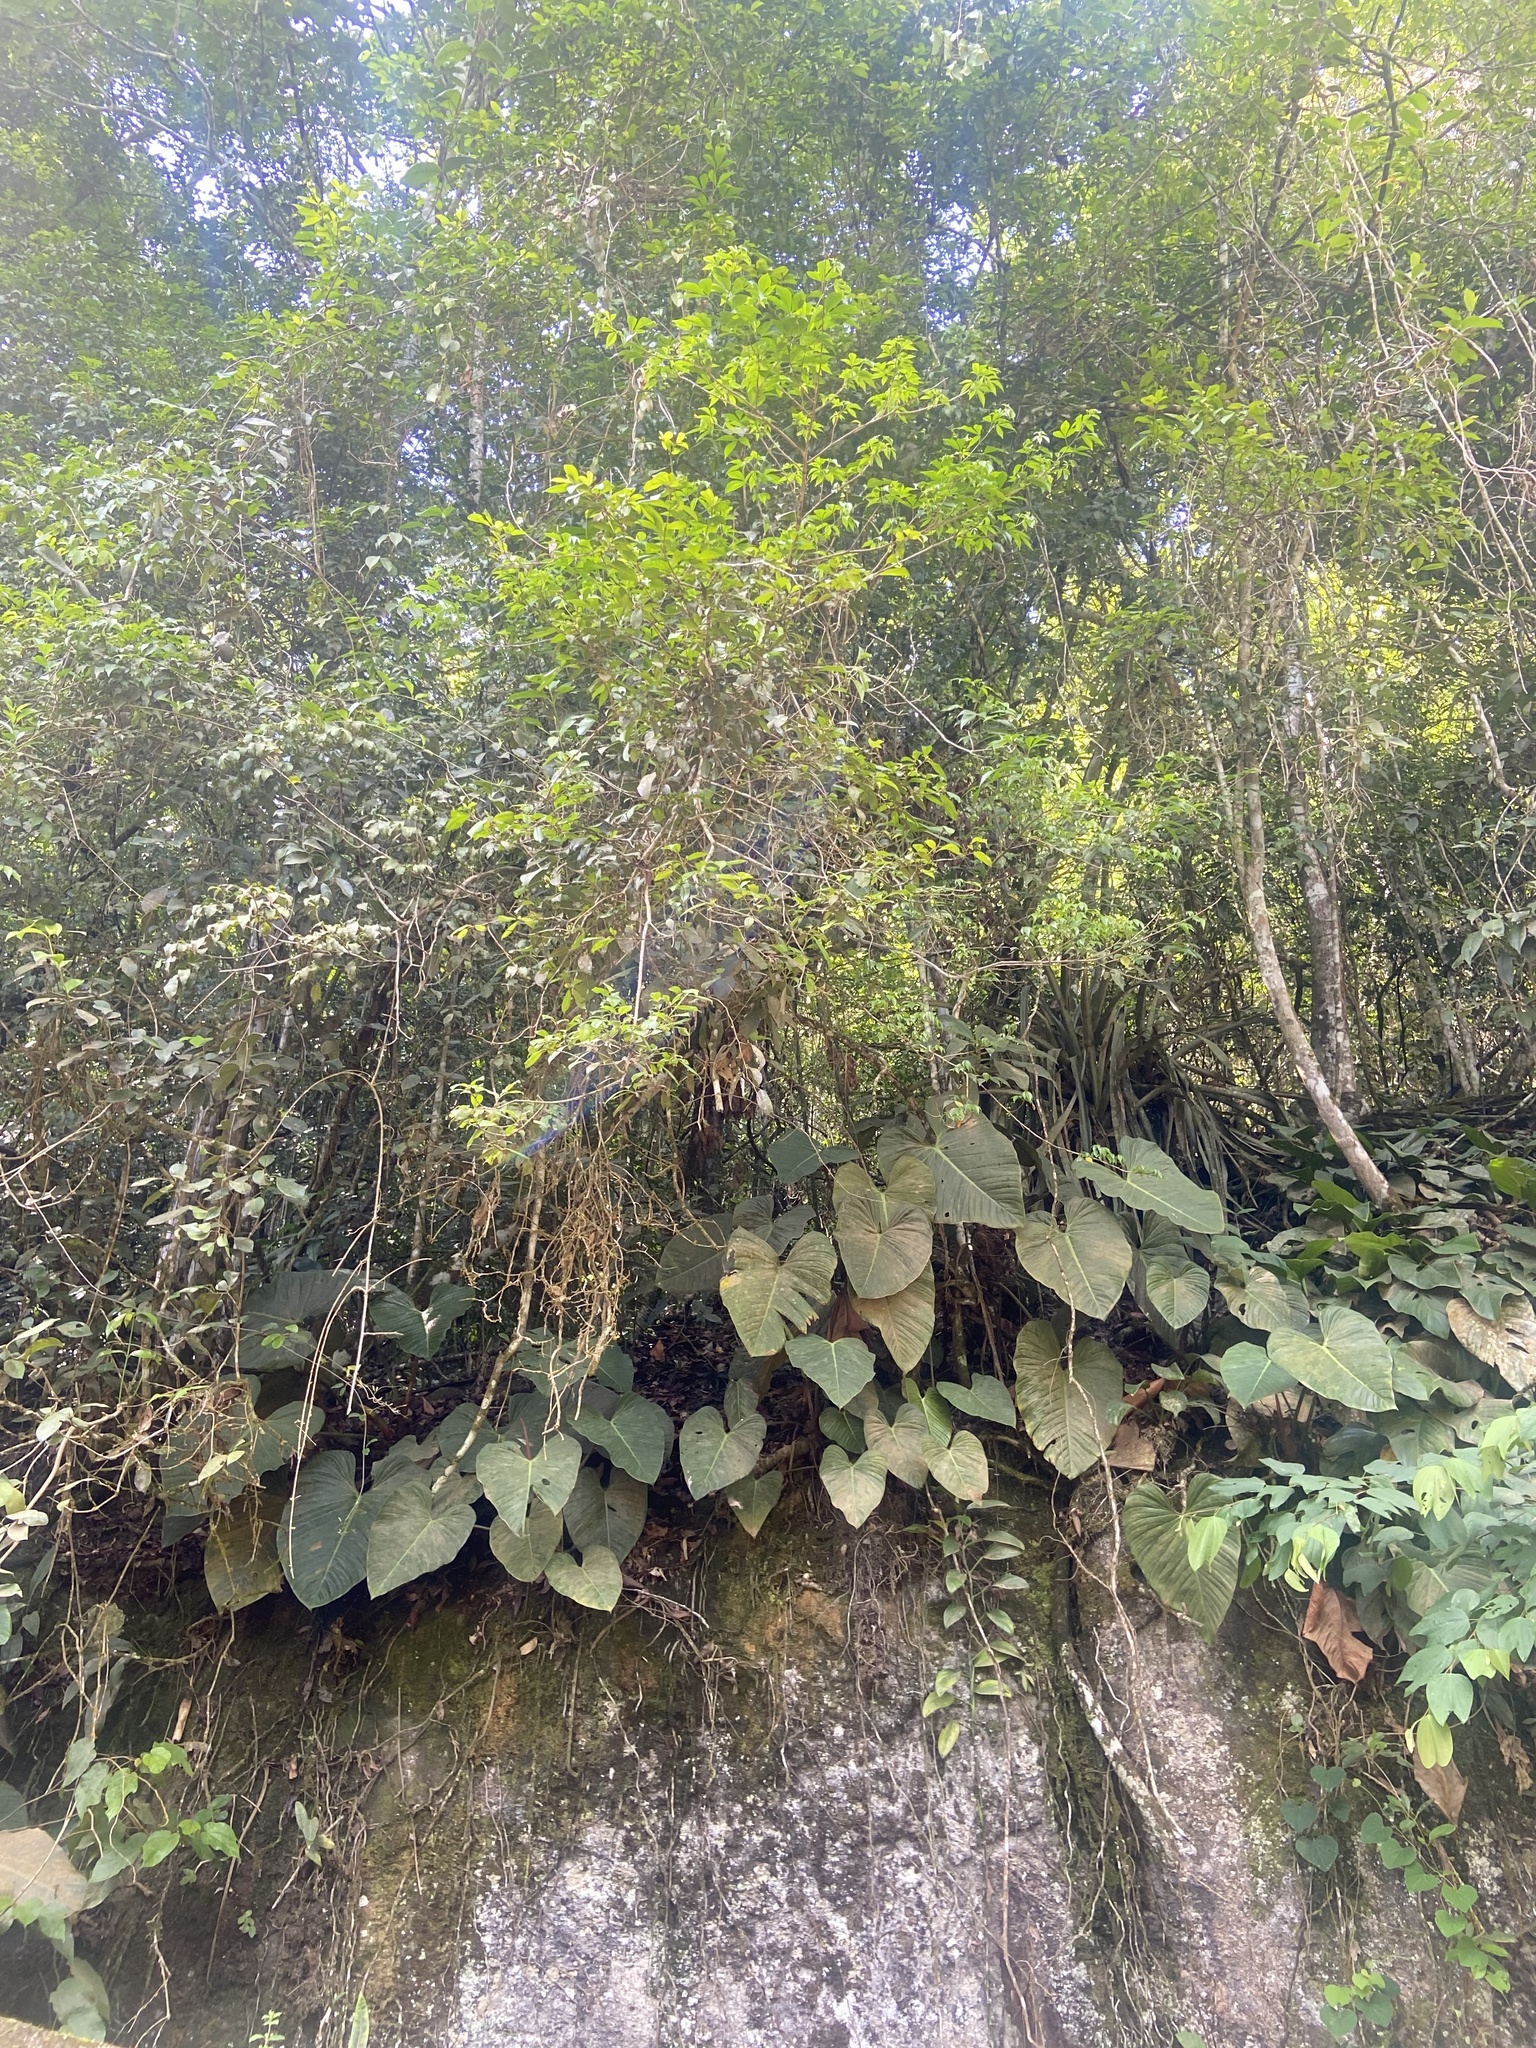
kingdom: Plantae
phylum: Tracheophyta
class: Liliopsida
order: Alismatales
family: Araceae
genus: Philodendron
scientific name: Philodendron ornatum
